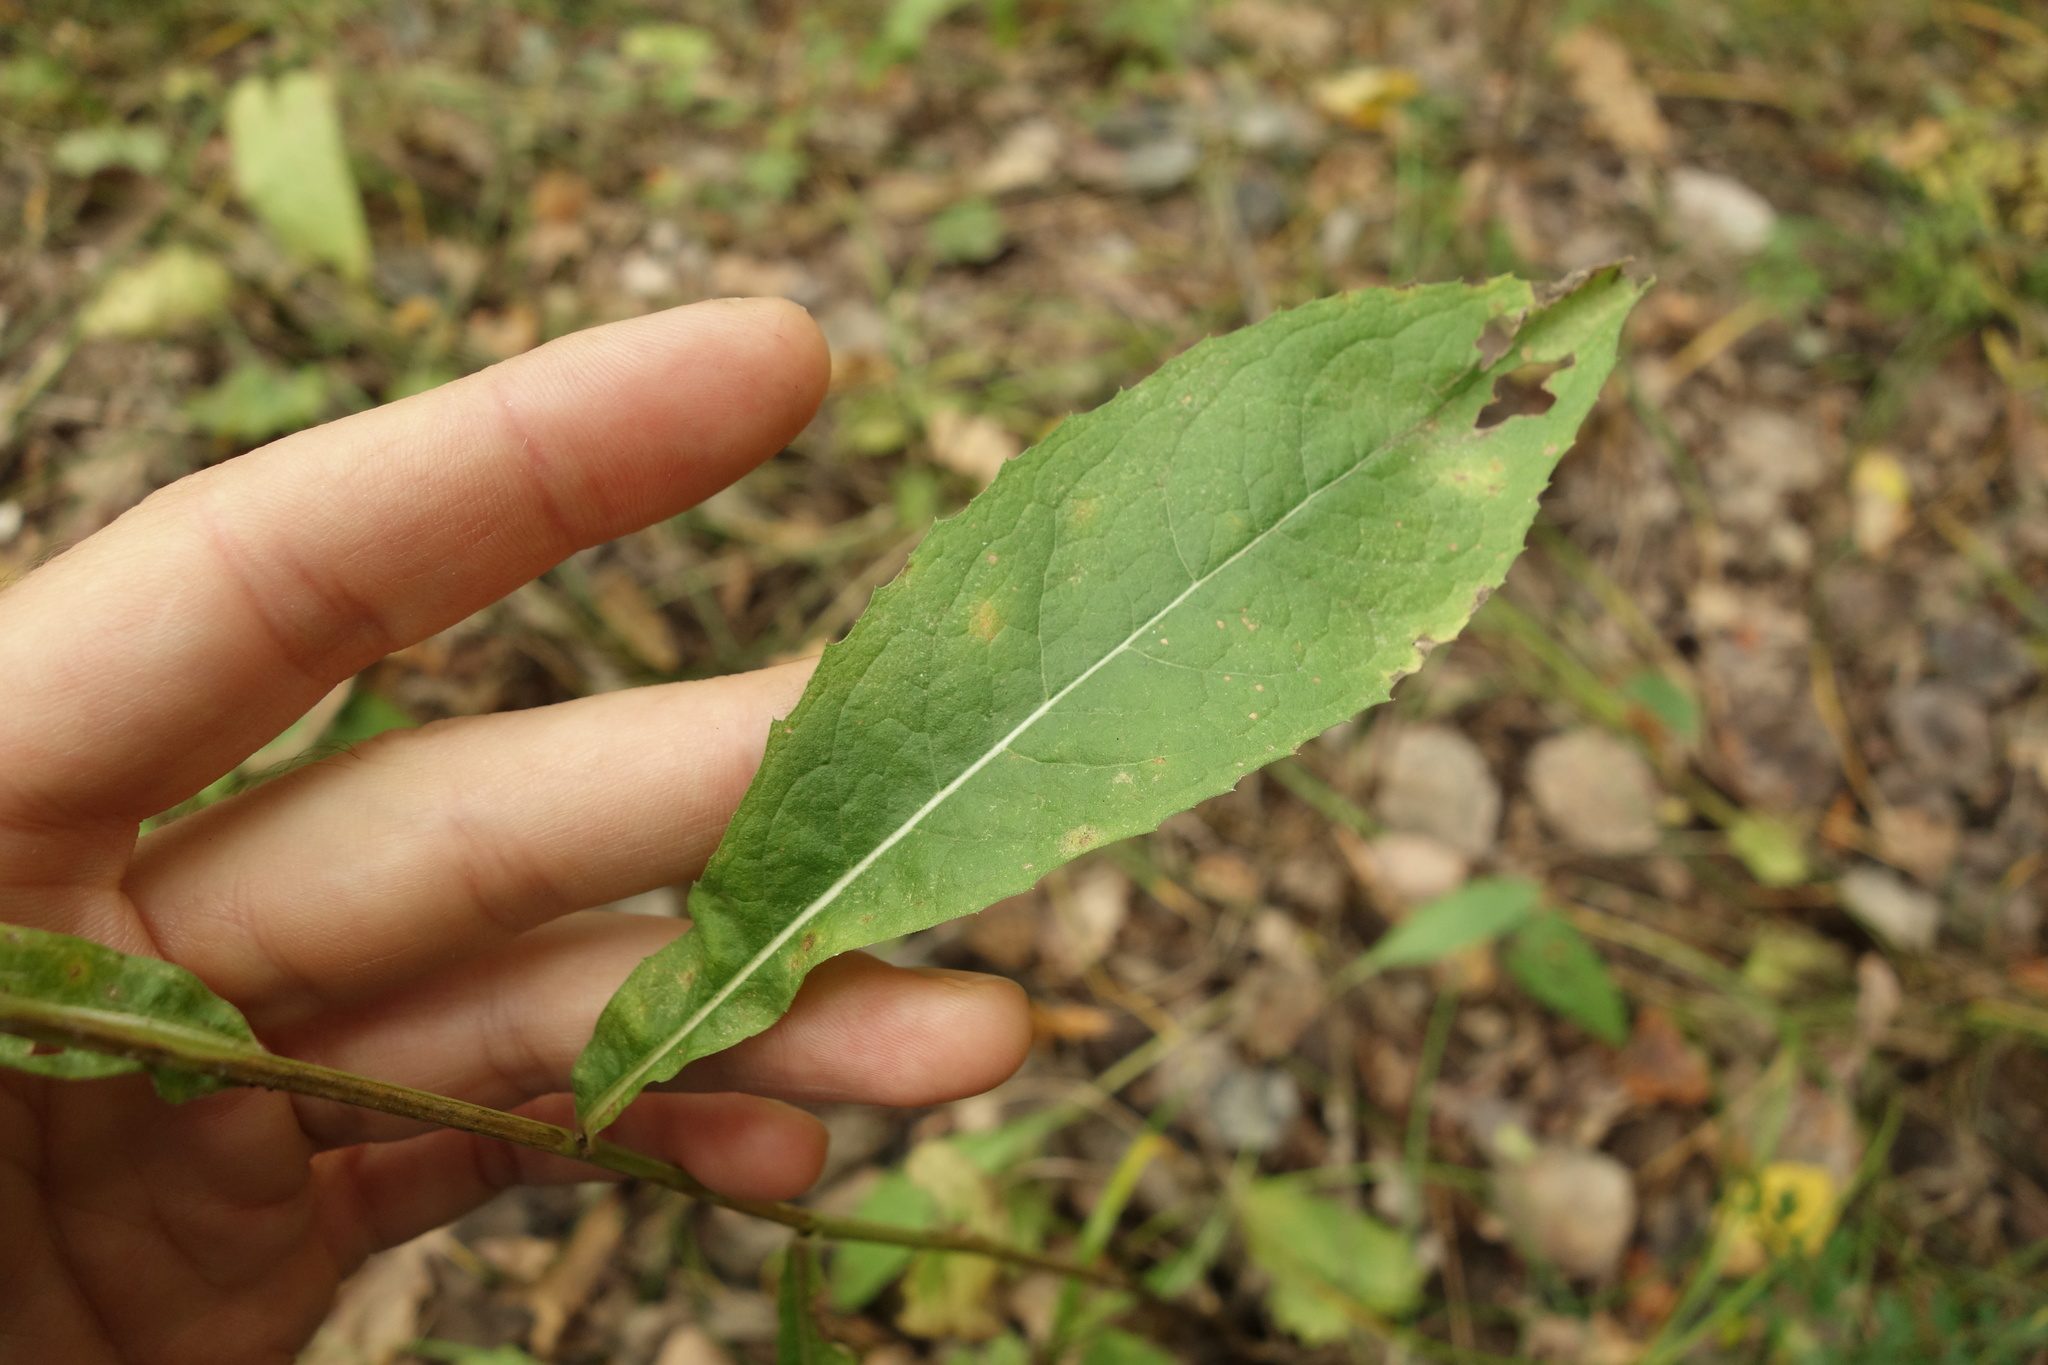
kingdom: Plantae
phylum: Tracheophyta
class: Magnoliopsida
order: Asterales
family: Asteraceae
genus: Centaurea
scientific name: Centaurea pseudophrygia
